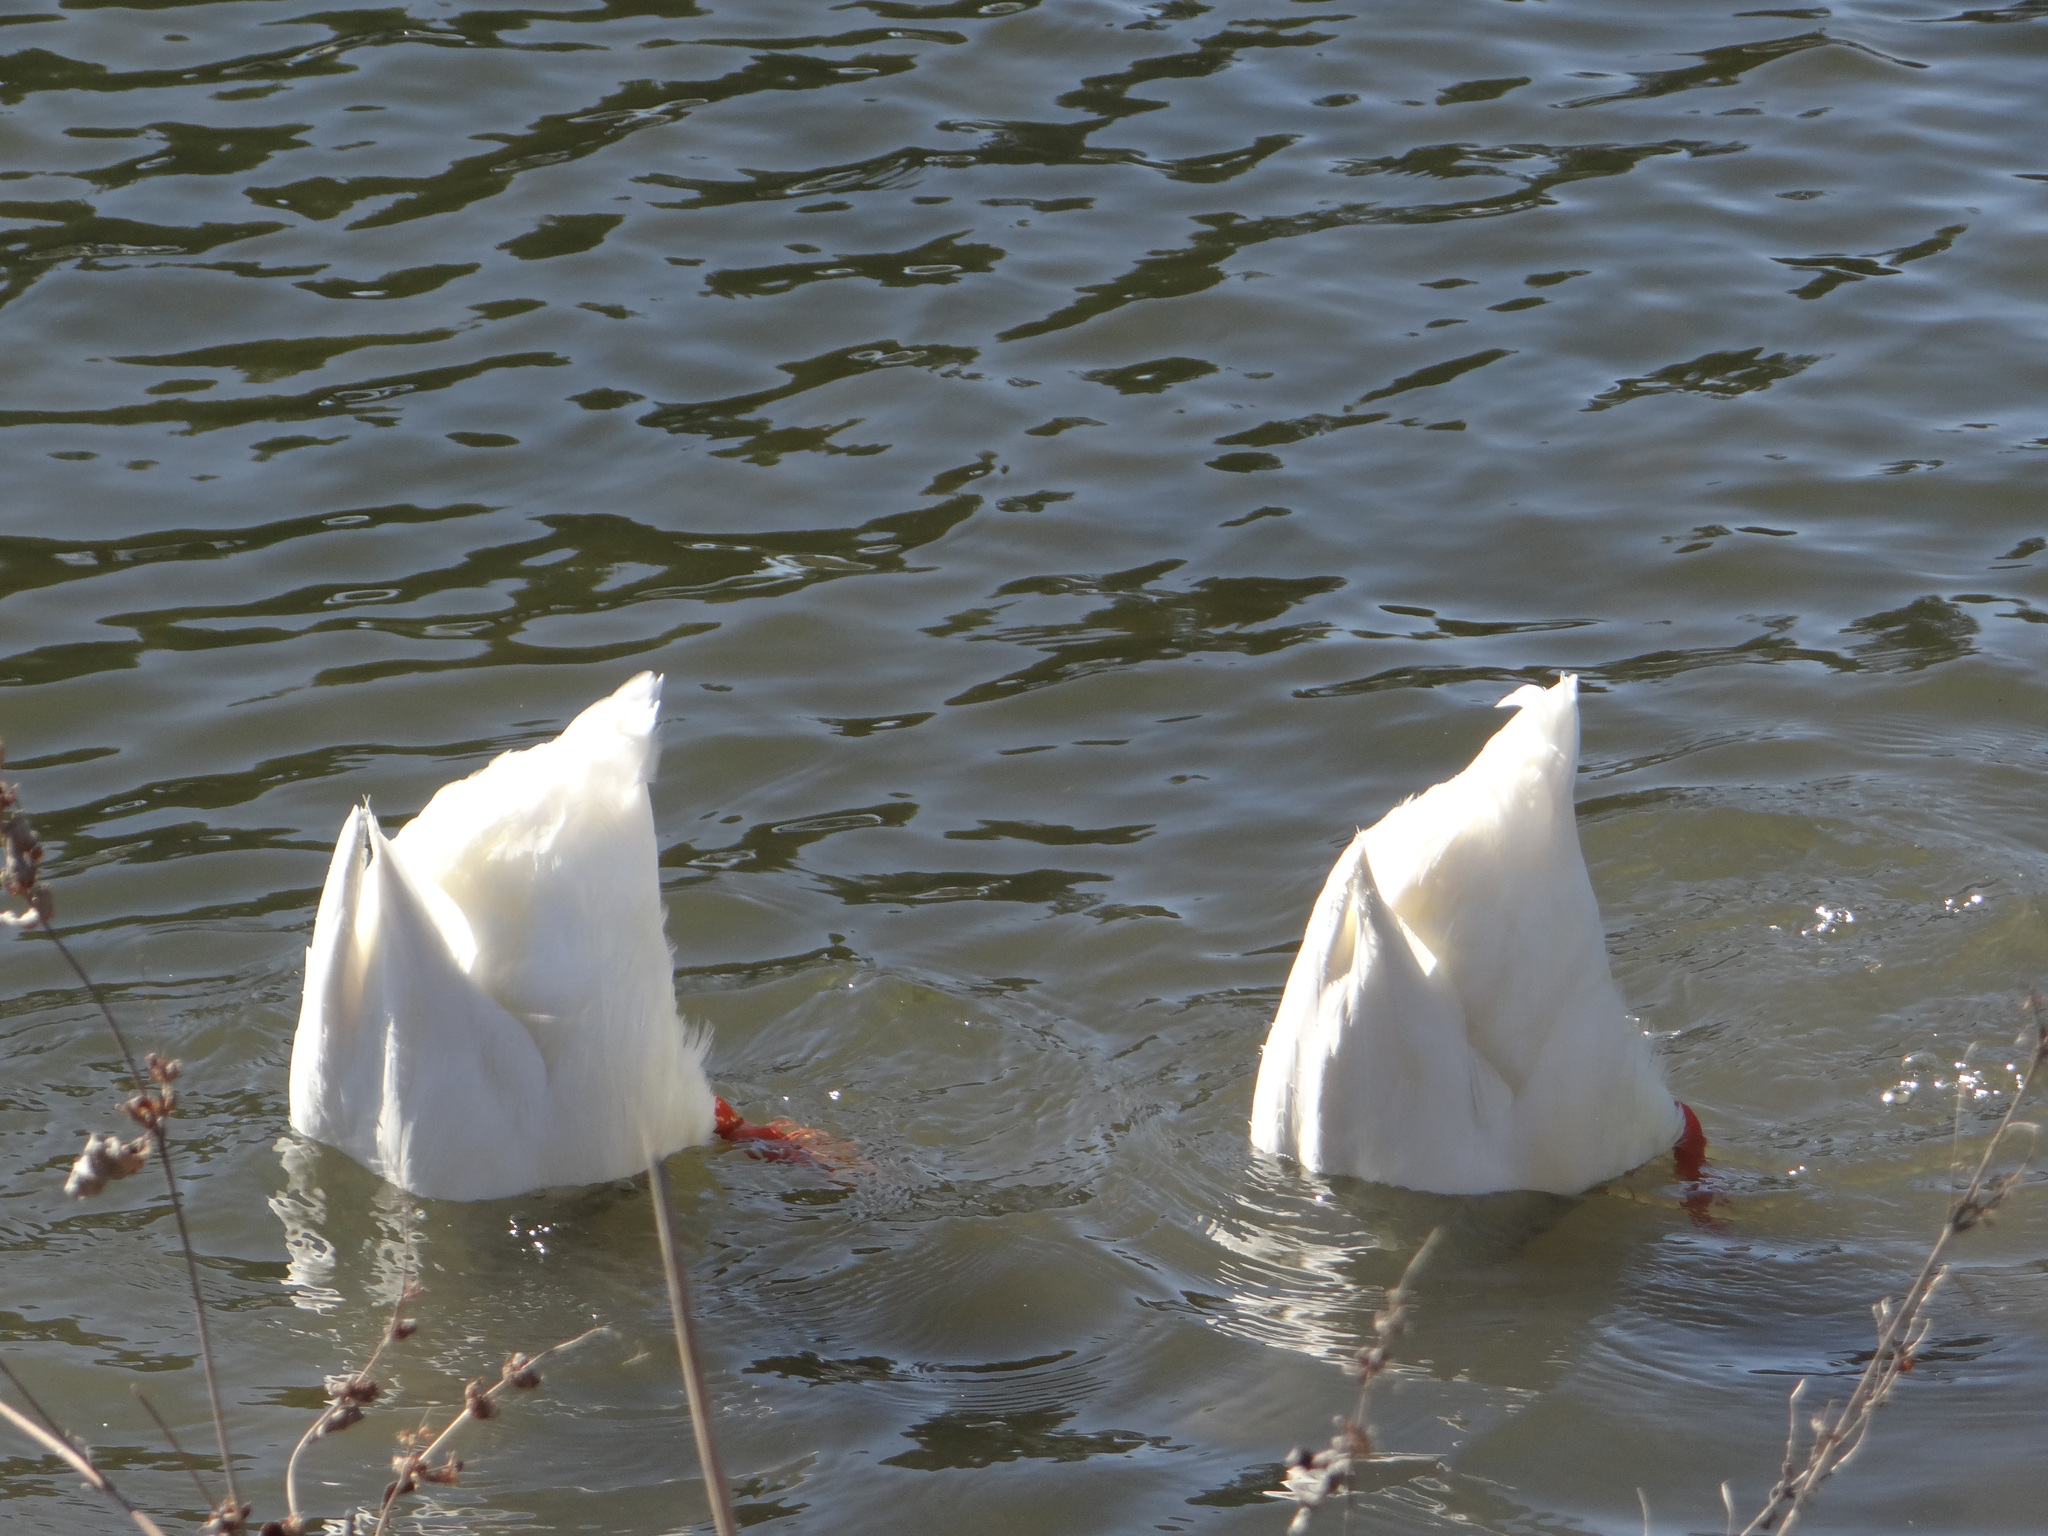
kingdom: Animalia
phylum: Chordata
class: Aves
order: Anseriformes
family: Anatidae
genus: Anas
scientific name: Anas platyrhynchos
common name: Mallard
